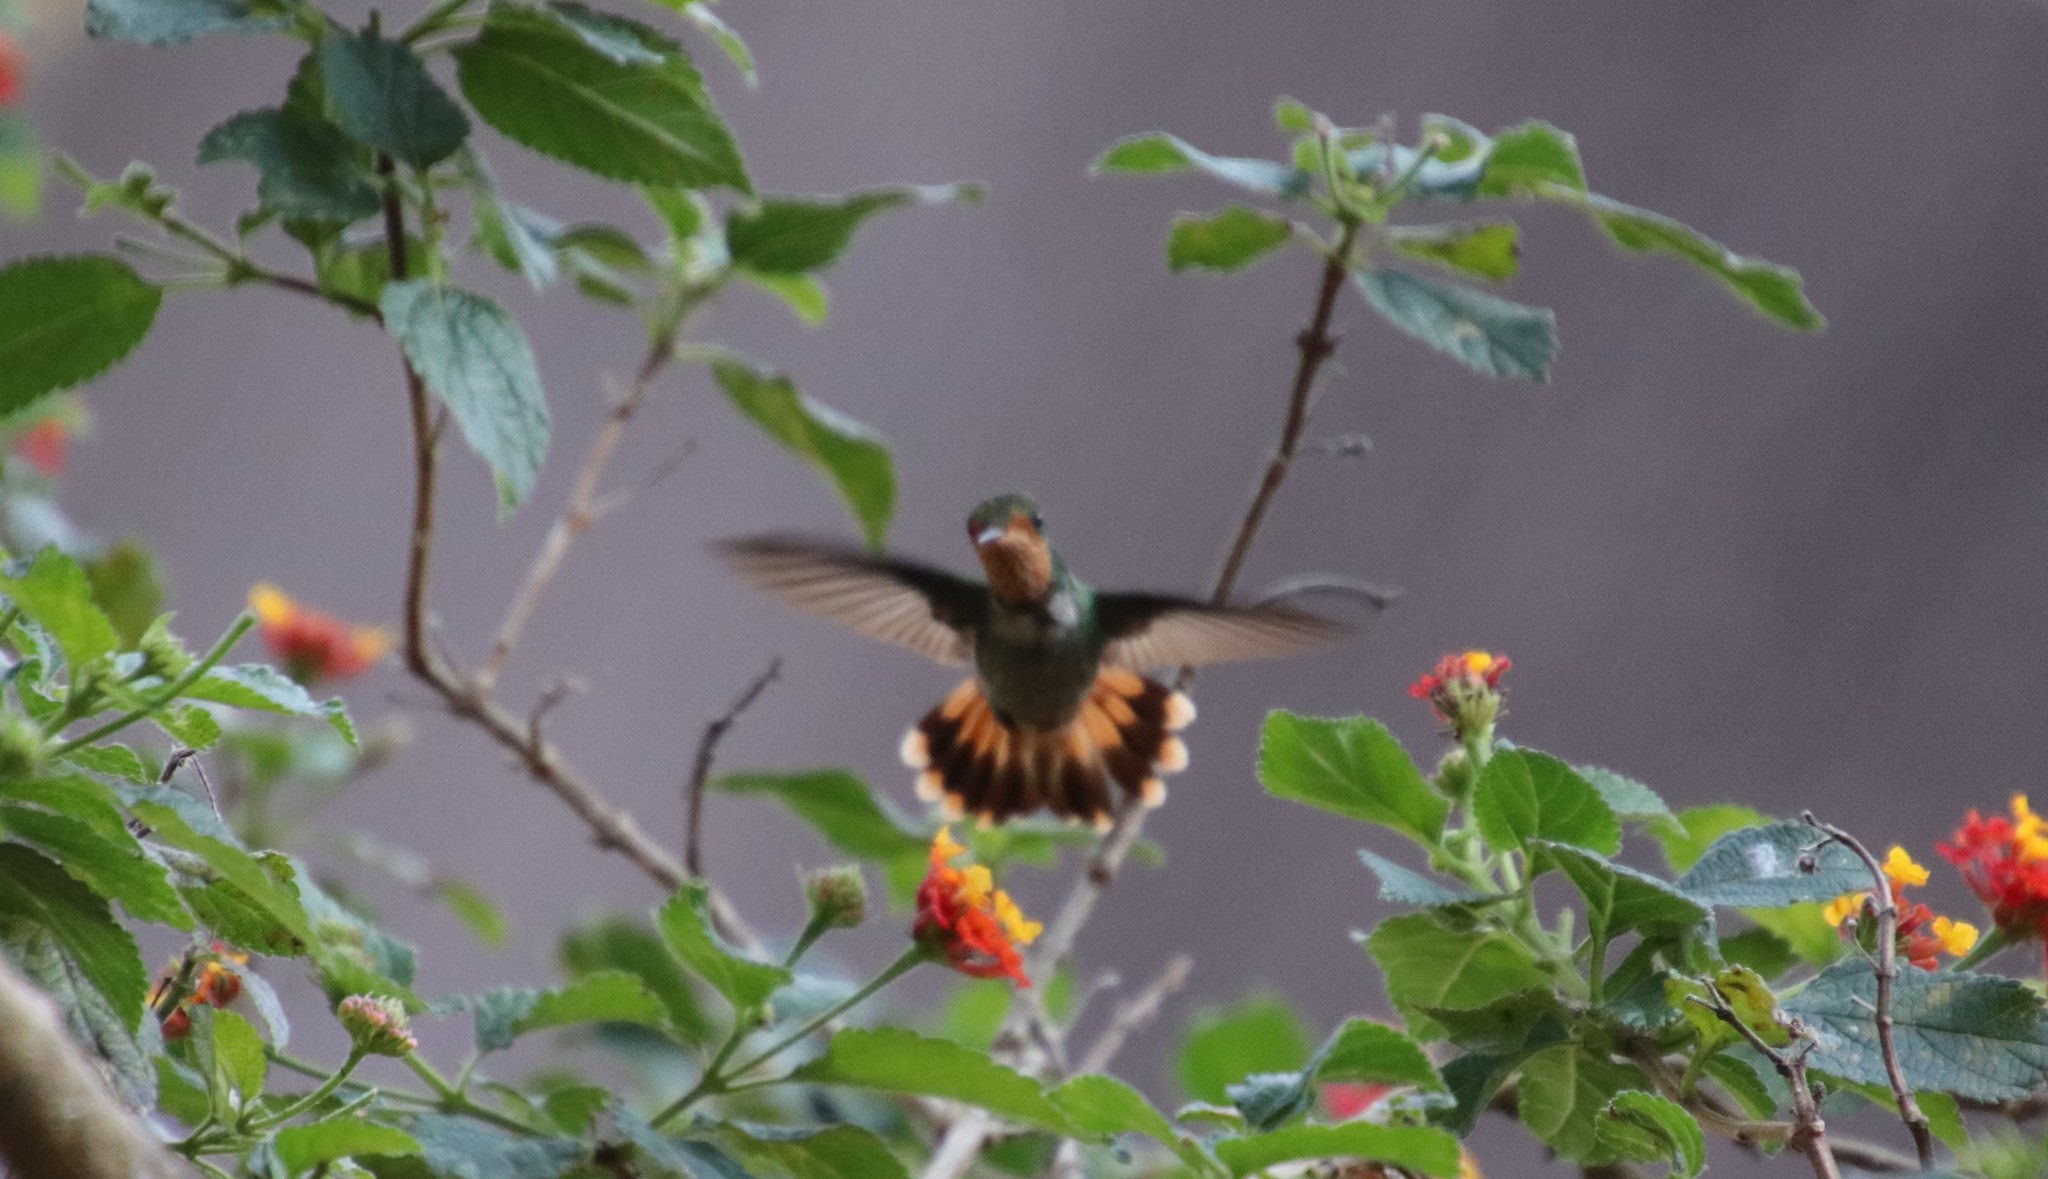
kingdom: Animalia
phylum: Chordata
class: Aves
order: Apodiformes
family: Trochilidae
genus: Lophornis
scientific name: Lophornis magnificus
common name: Frilled coquette
